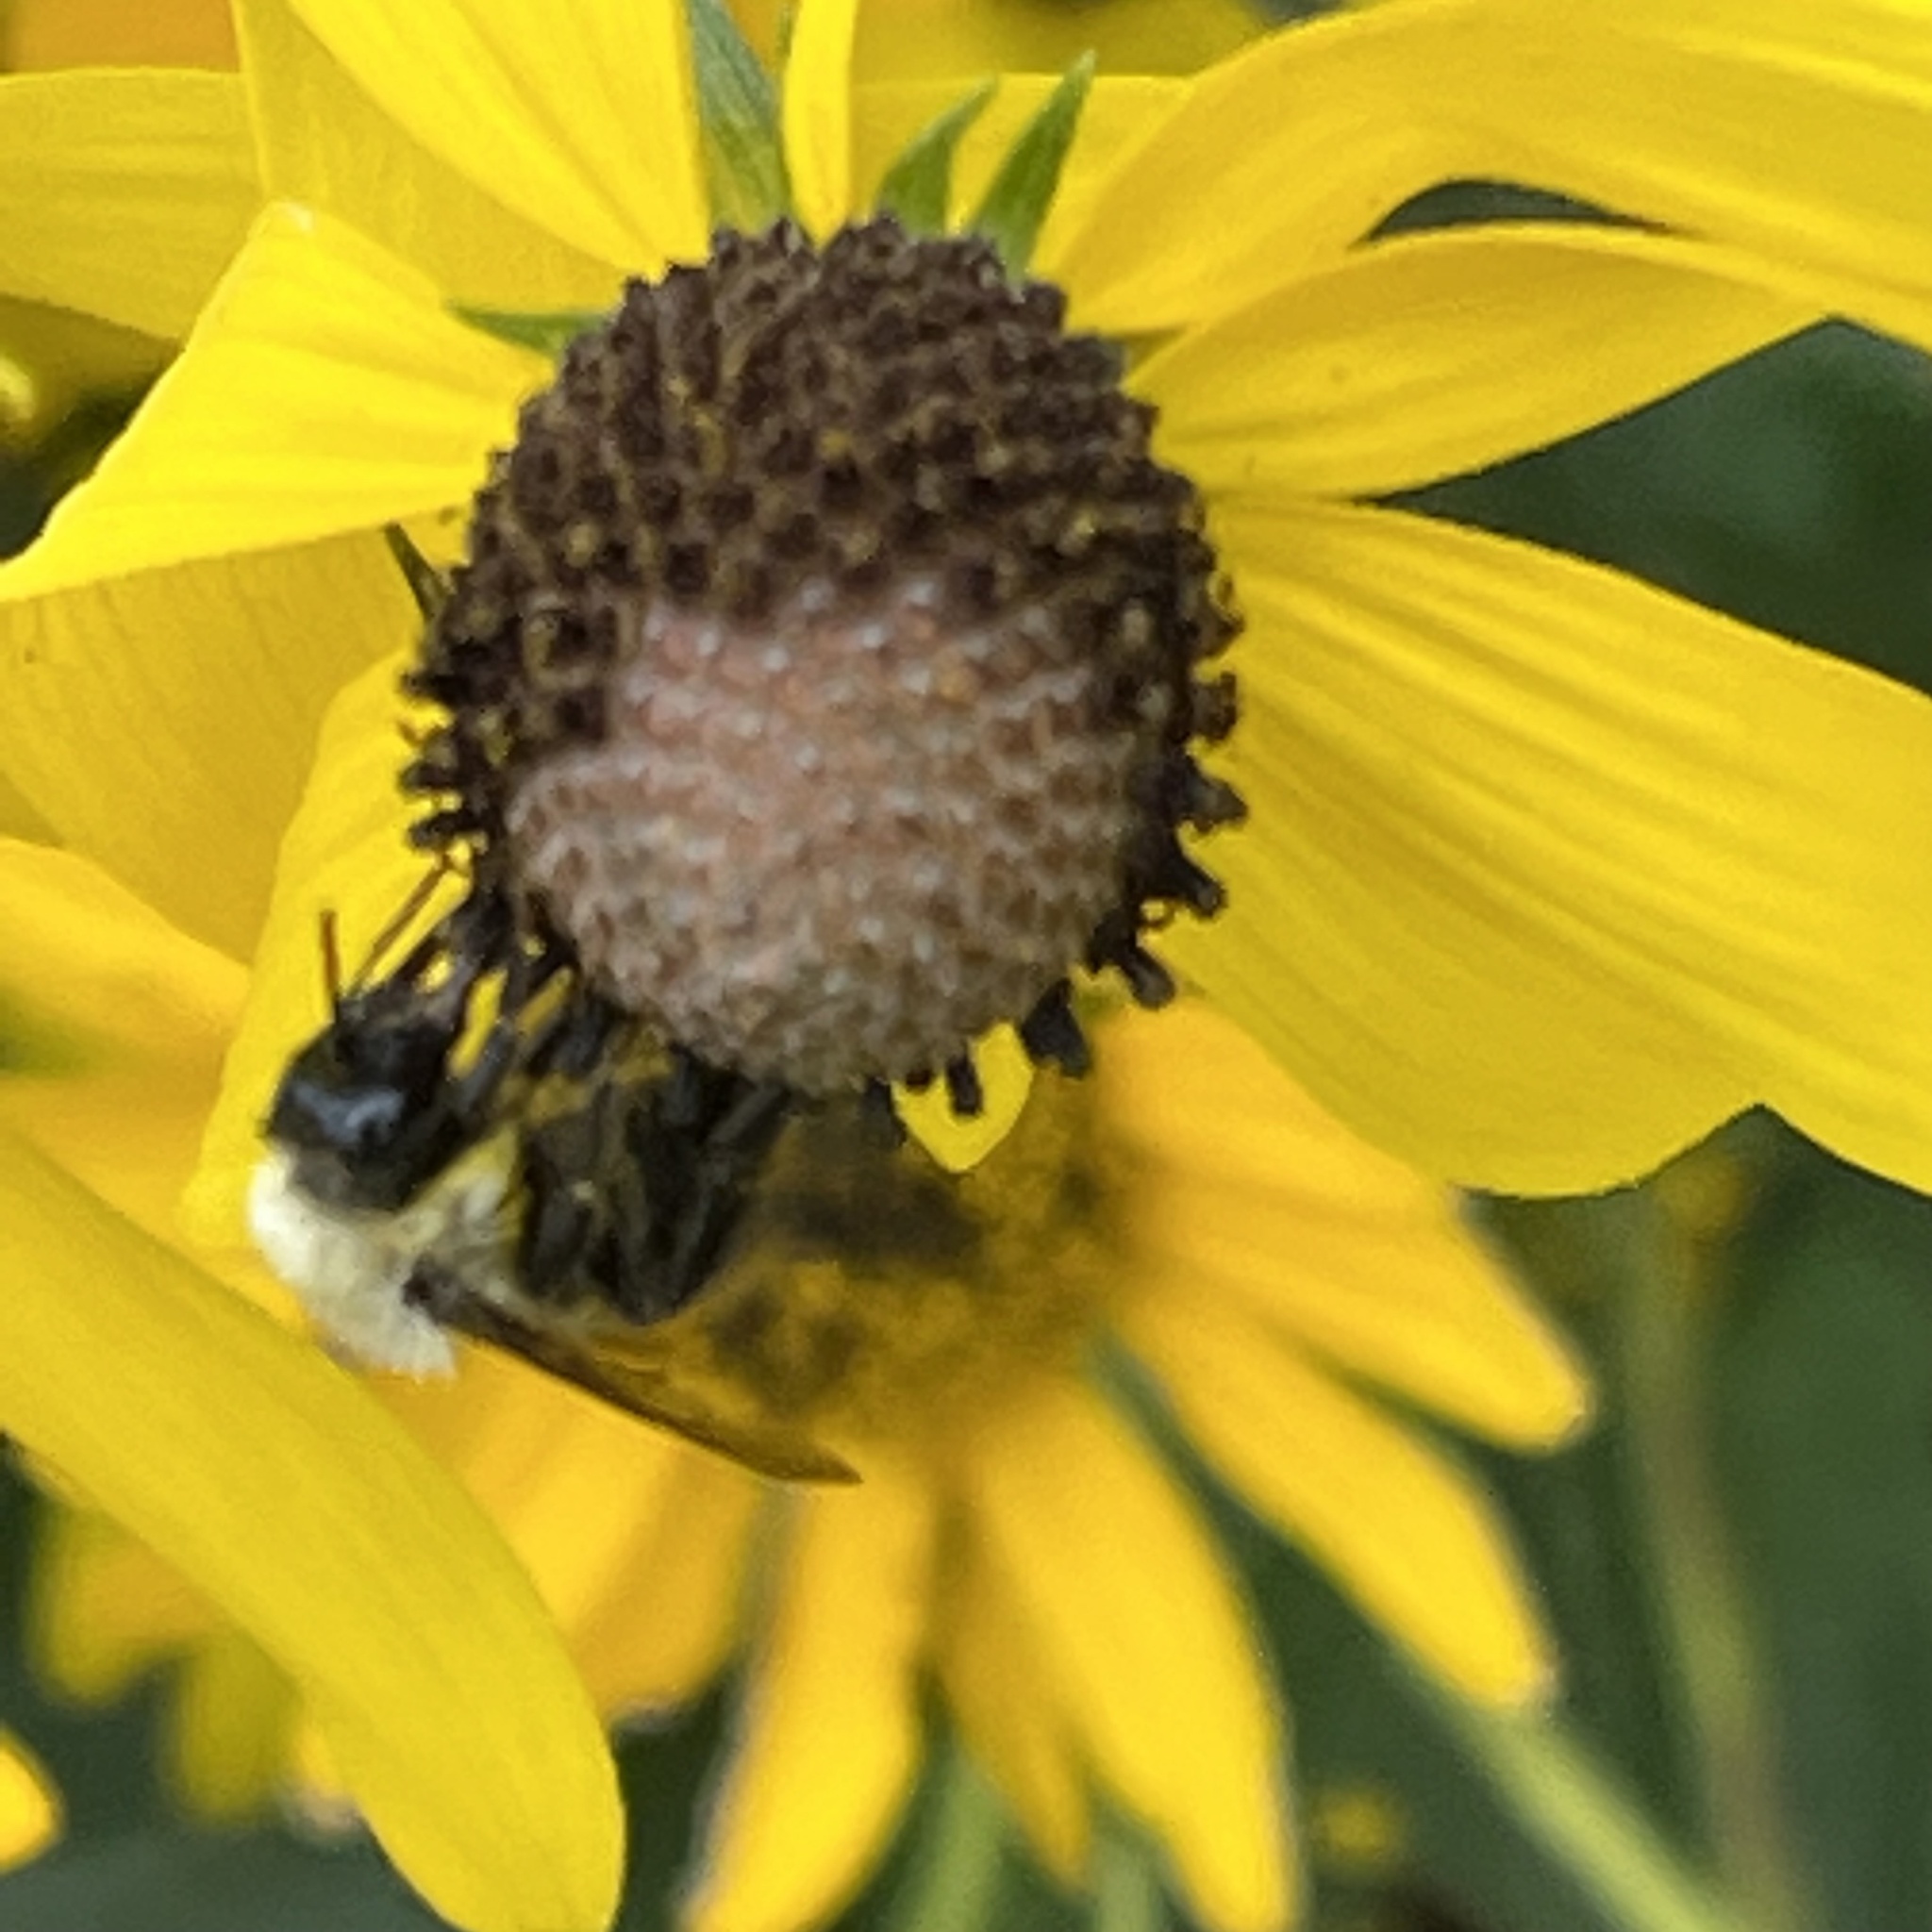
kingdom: Animalia
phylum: Arthropoda
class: Insecta
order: Hymenoptera
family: Apidae
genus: Bombus
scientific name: Bombus impatiens
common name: Common eastern bumble bee
